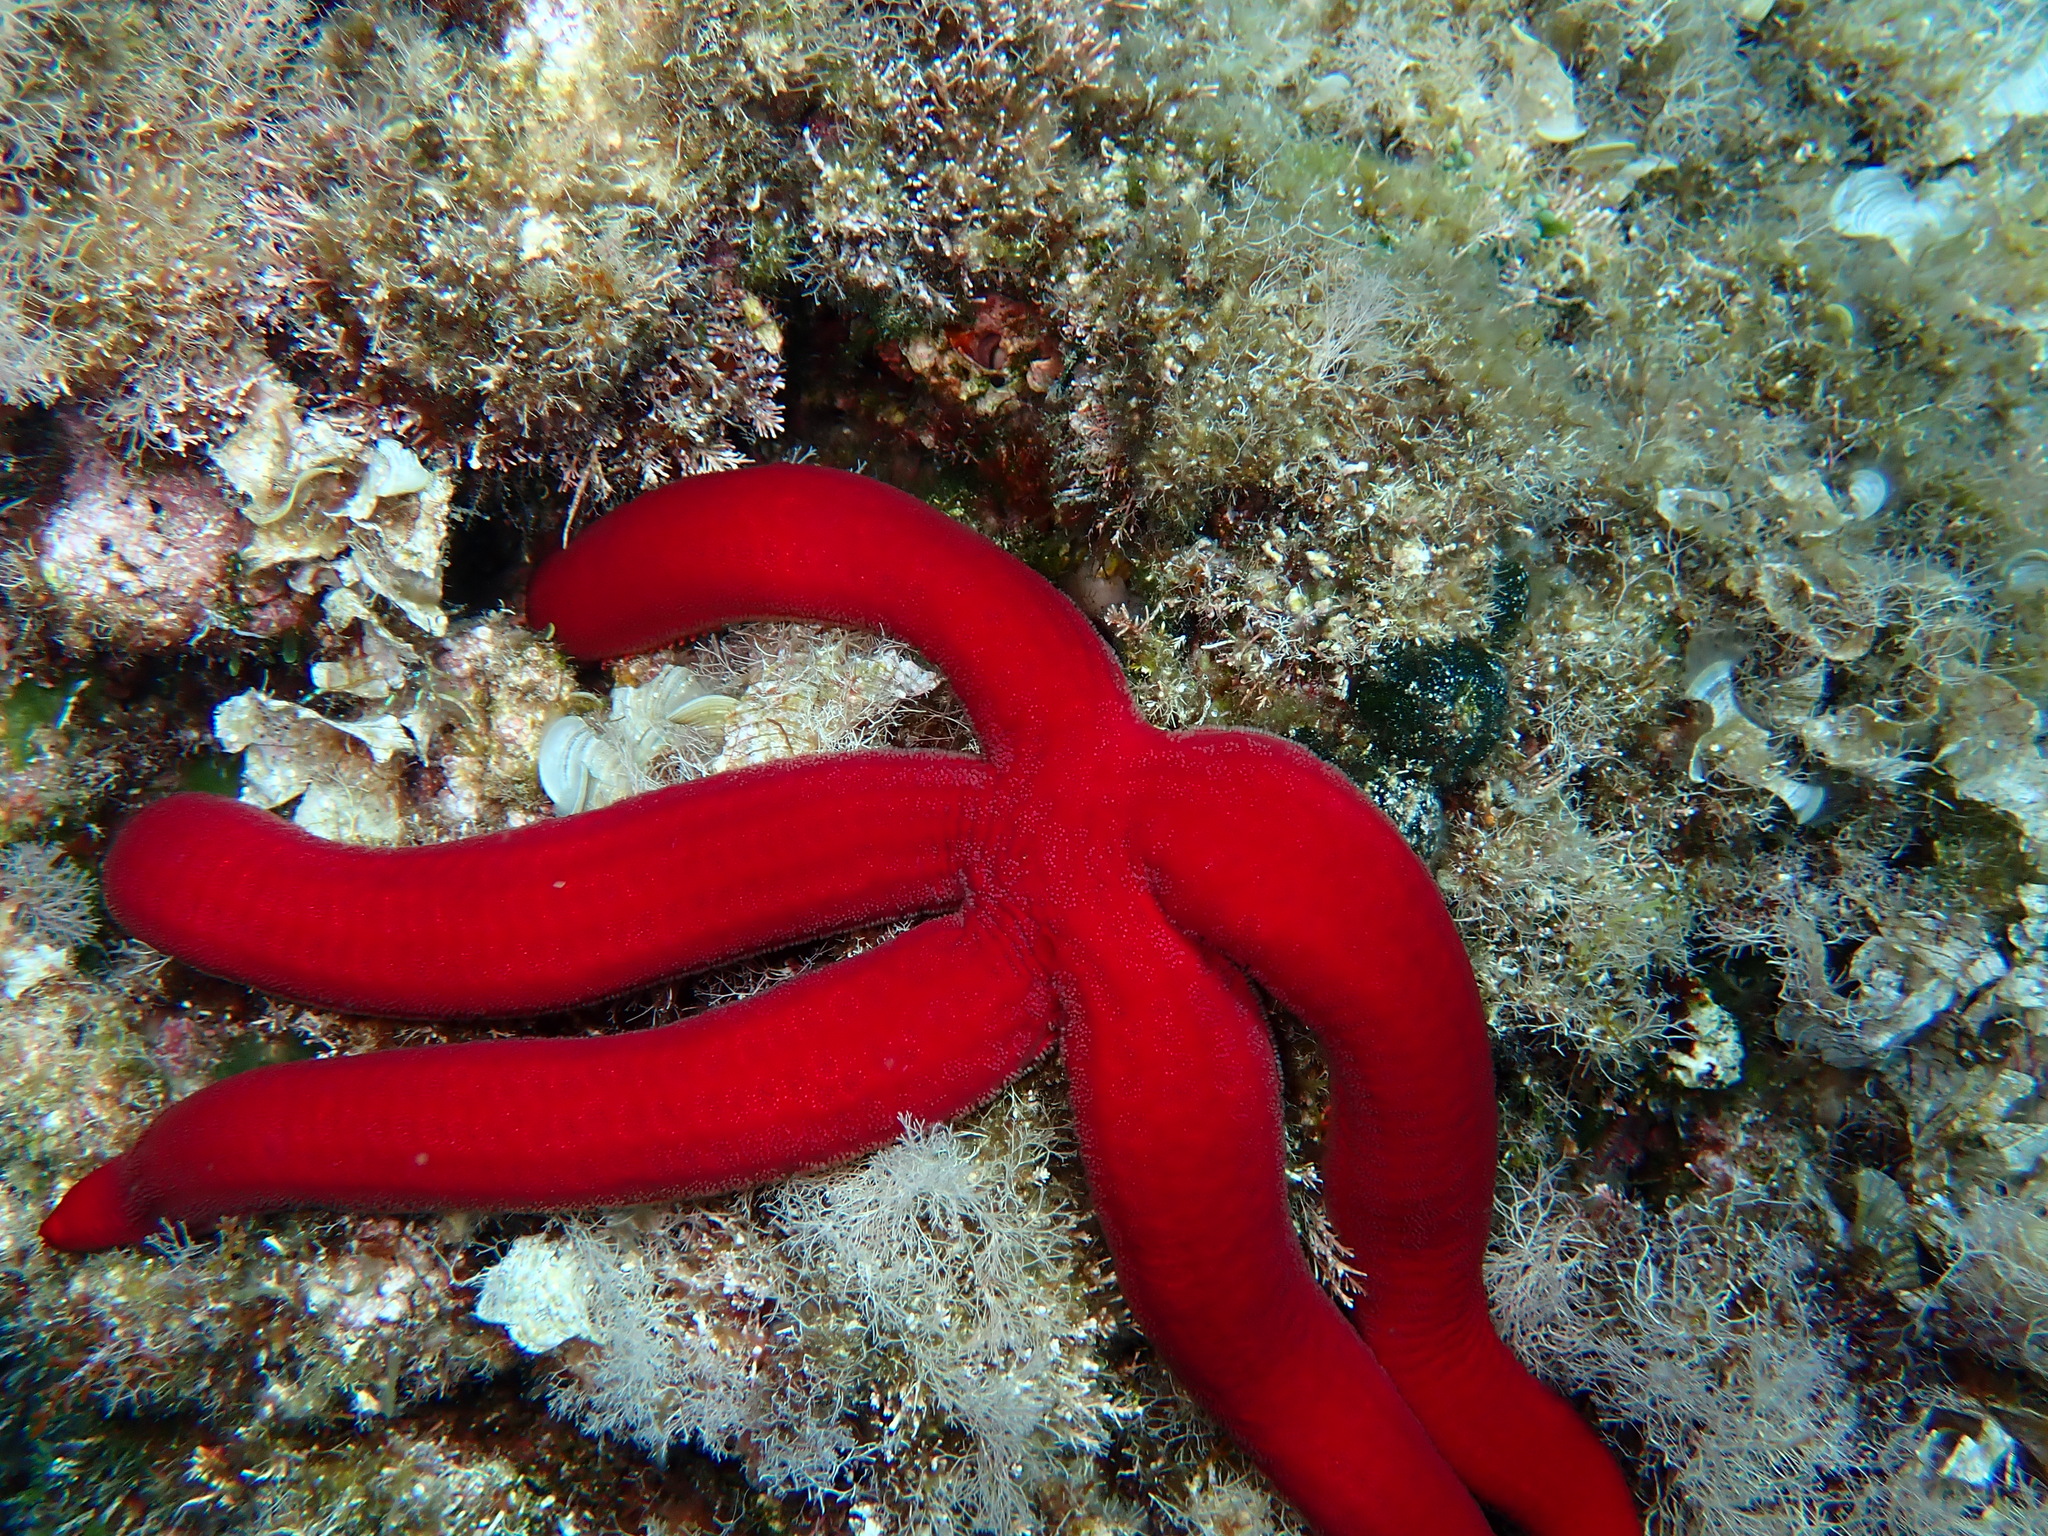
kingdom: Animalia
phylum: Echinodermata
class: Asteroidea
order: Valvatida
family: Ophidiasteridae
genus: Ophidiaster
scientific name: Ophidiaster ophidianus
